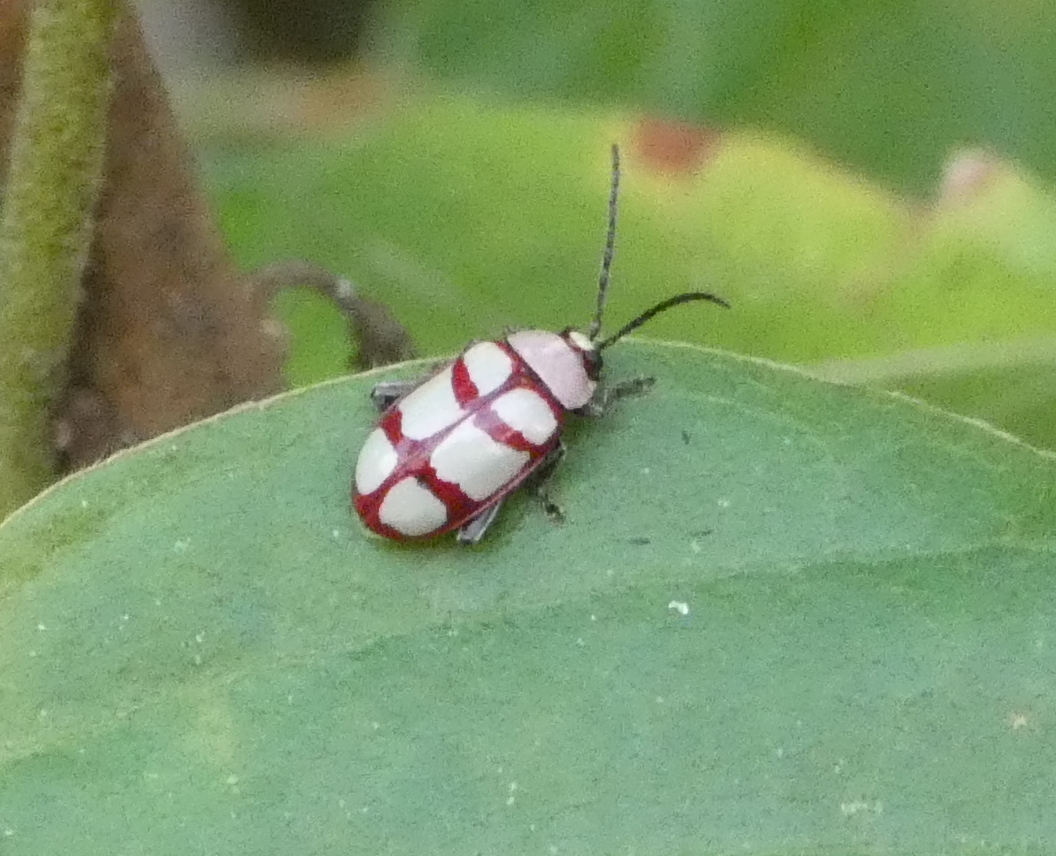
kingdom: Animalia
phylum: Arthropoda
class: Insecta
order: Coleoptera
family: Chrysomelidae
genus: Omophoita
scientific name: Omophoita personata
